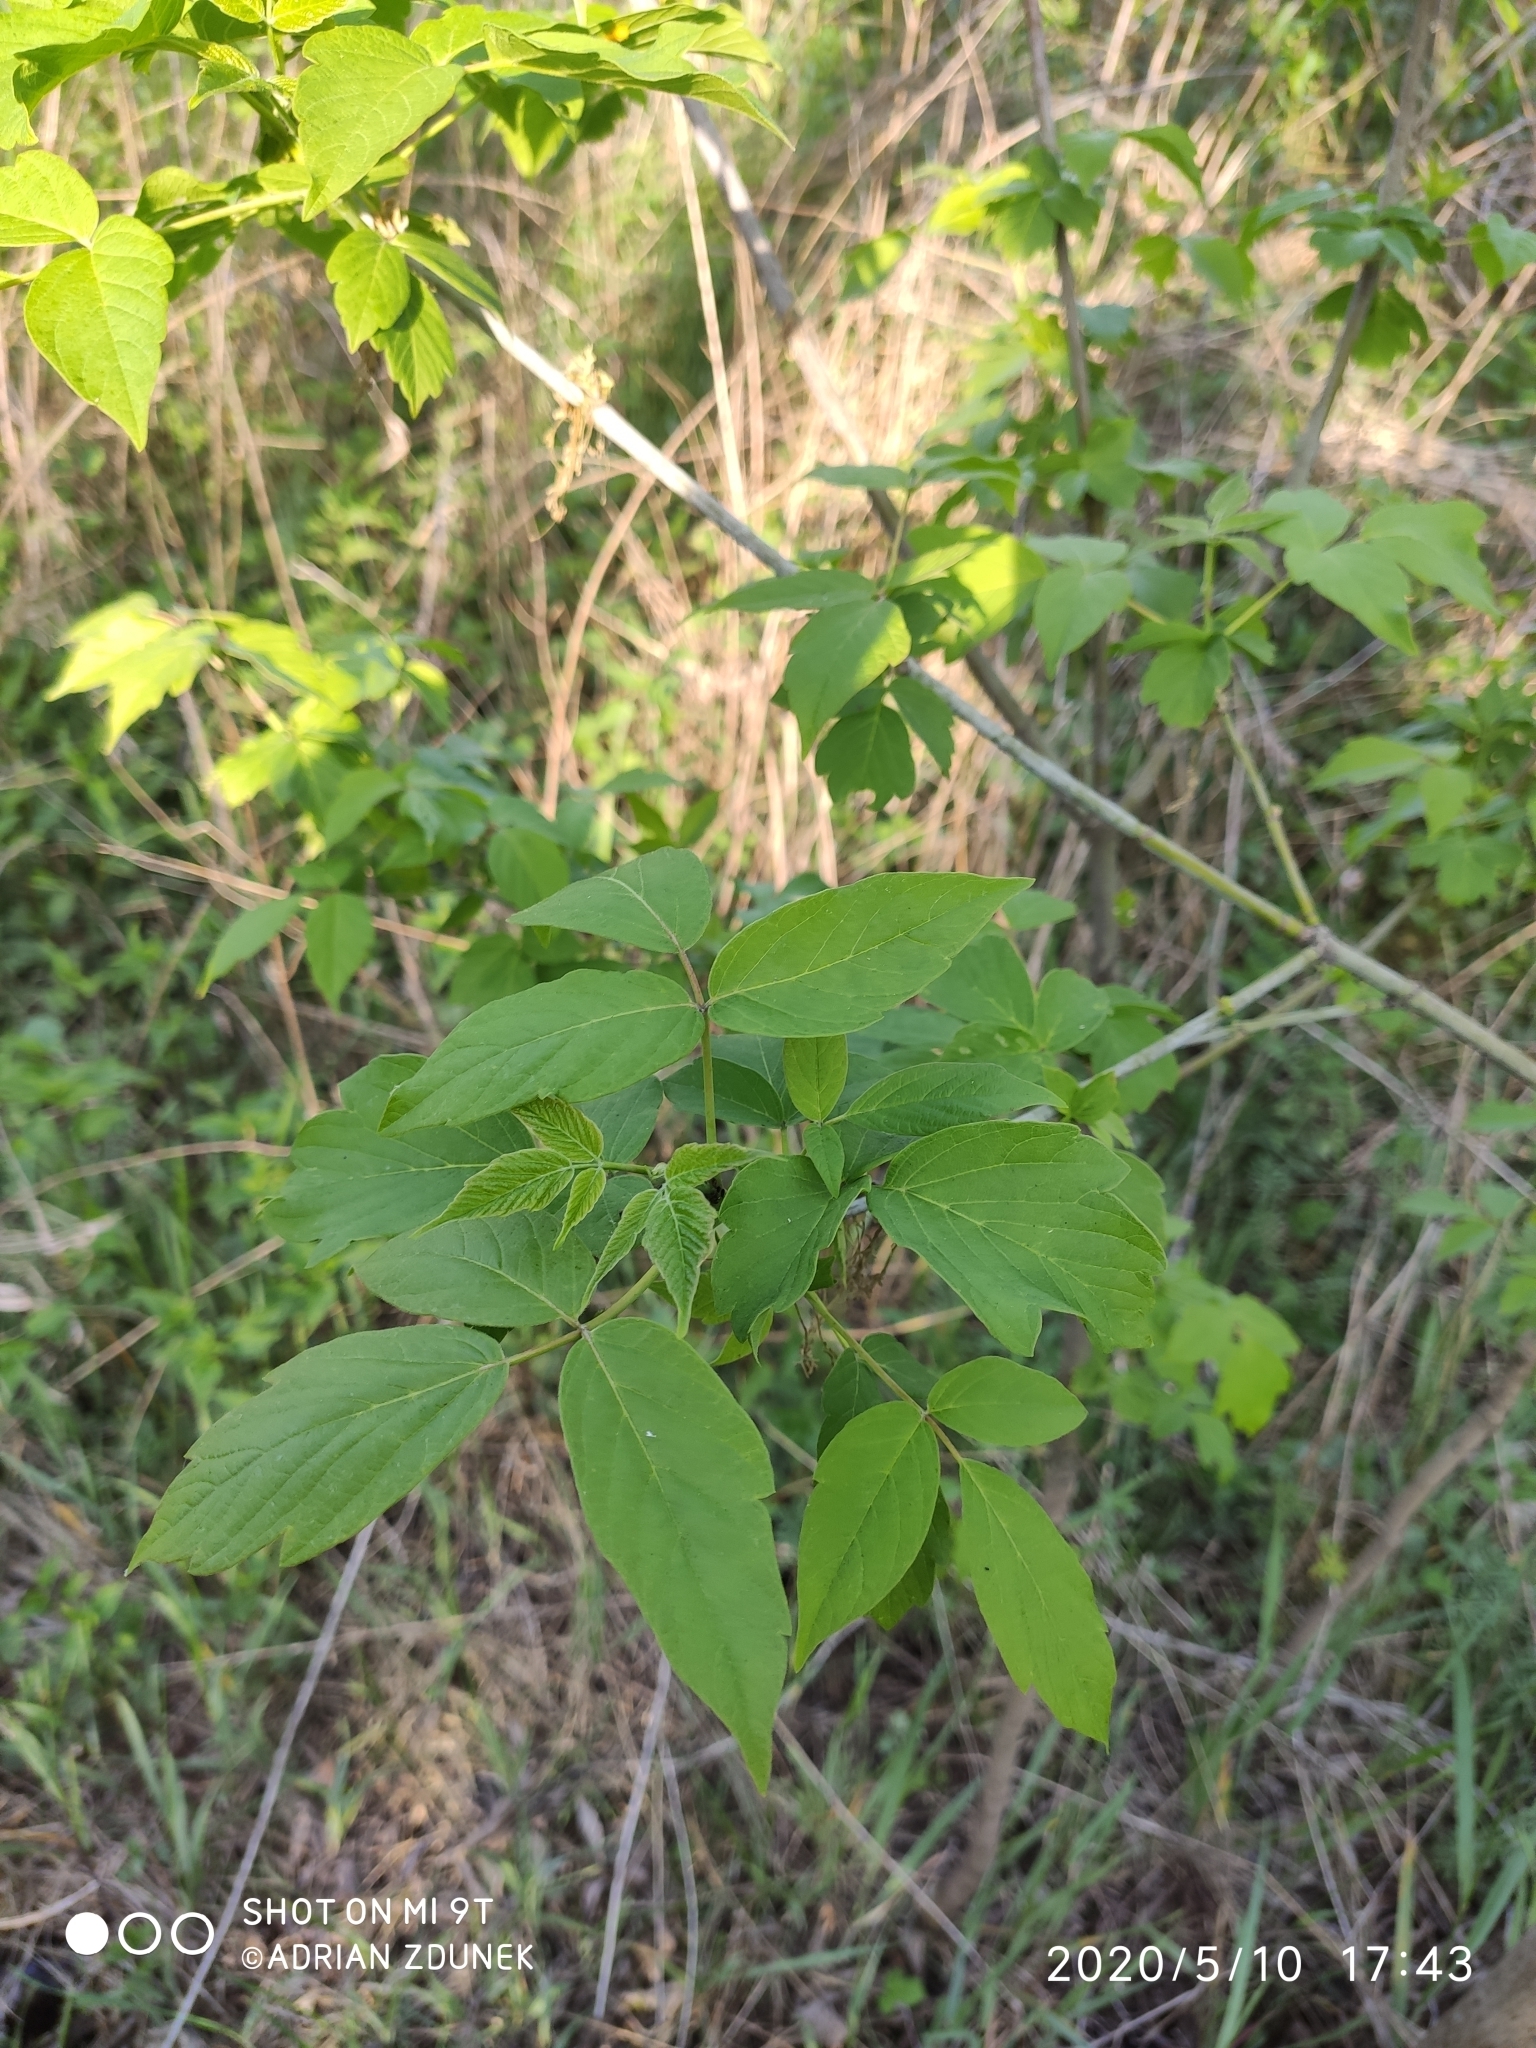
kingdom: Plantae
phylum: Tracheophyta
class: Magnoliopsida
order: Sapindales
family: Sapindaceae
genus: Acer
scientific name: Acer negundo
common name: Ashleaf maple
